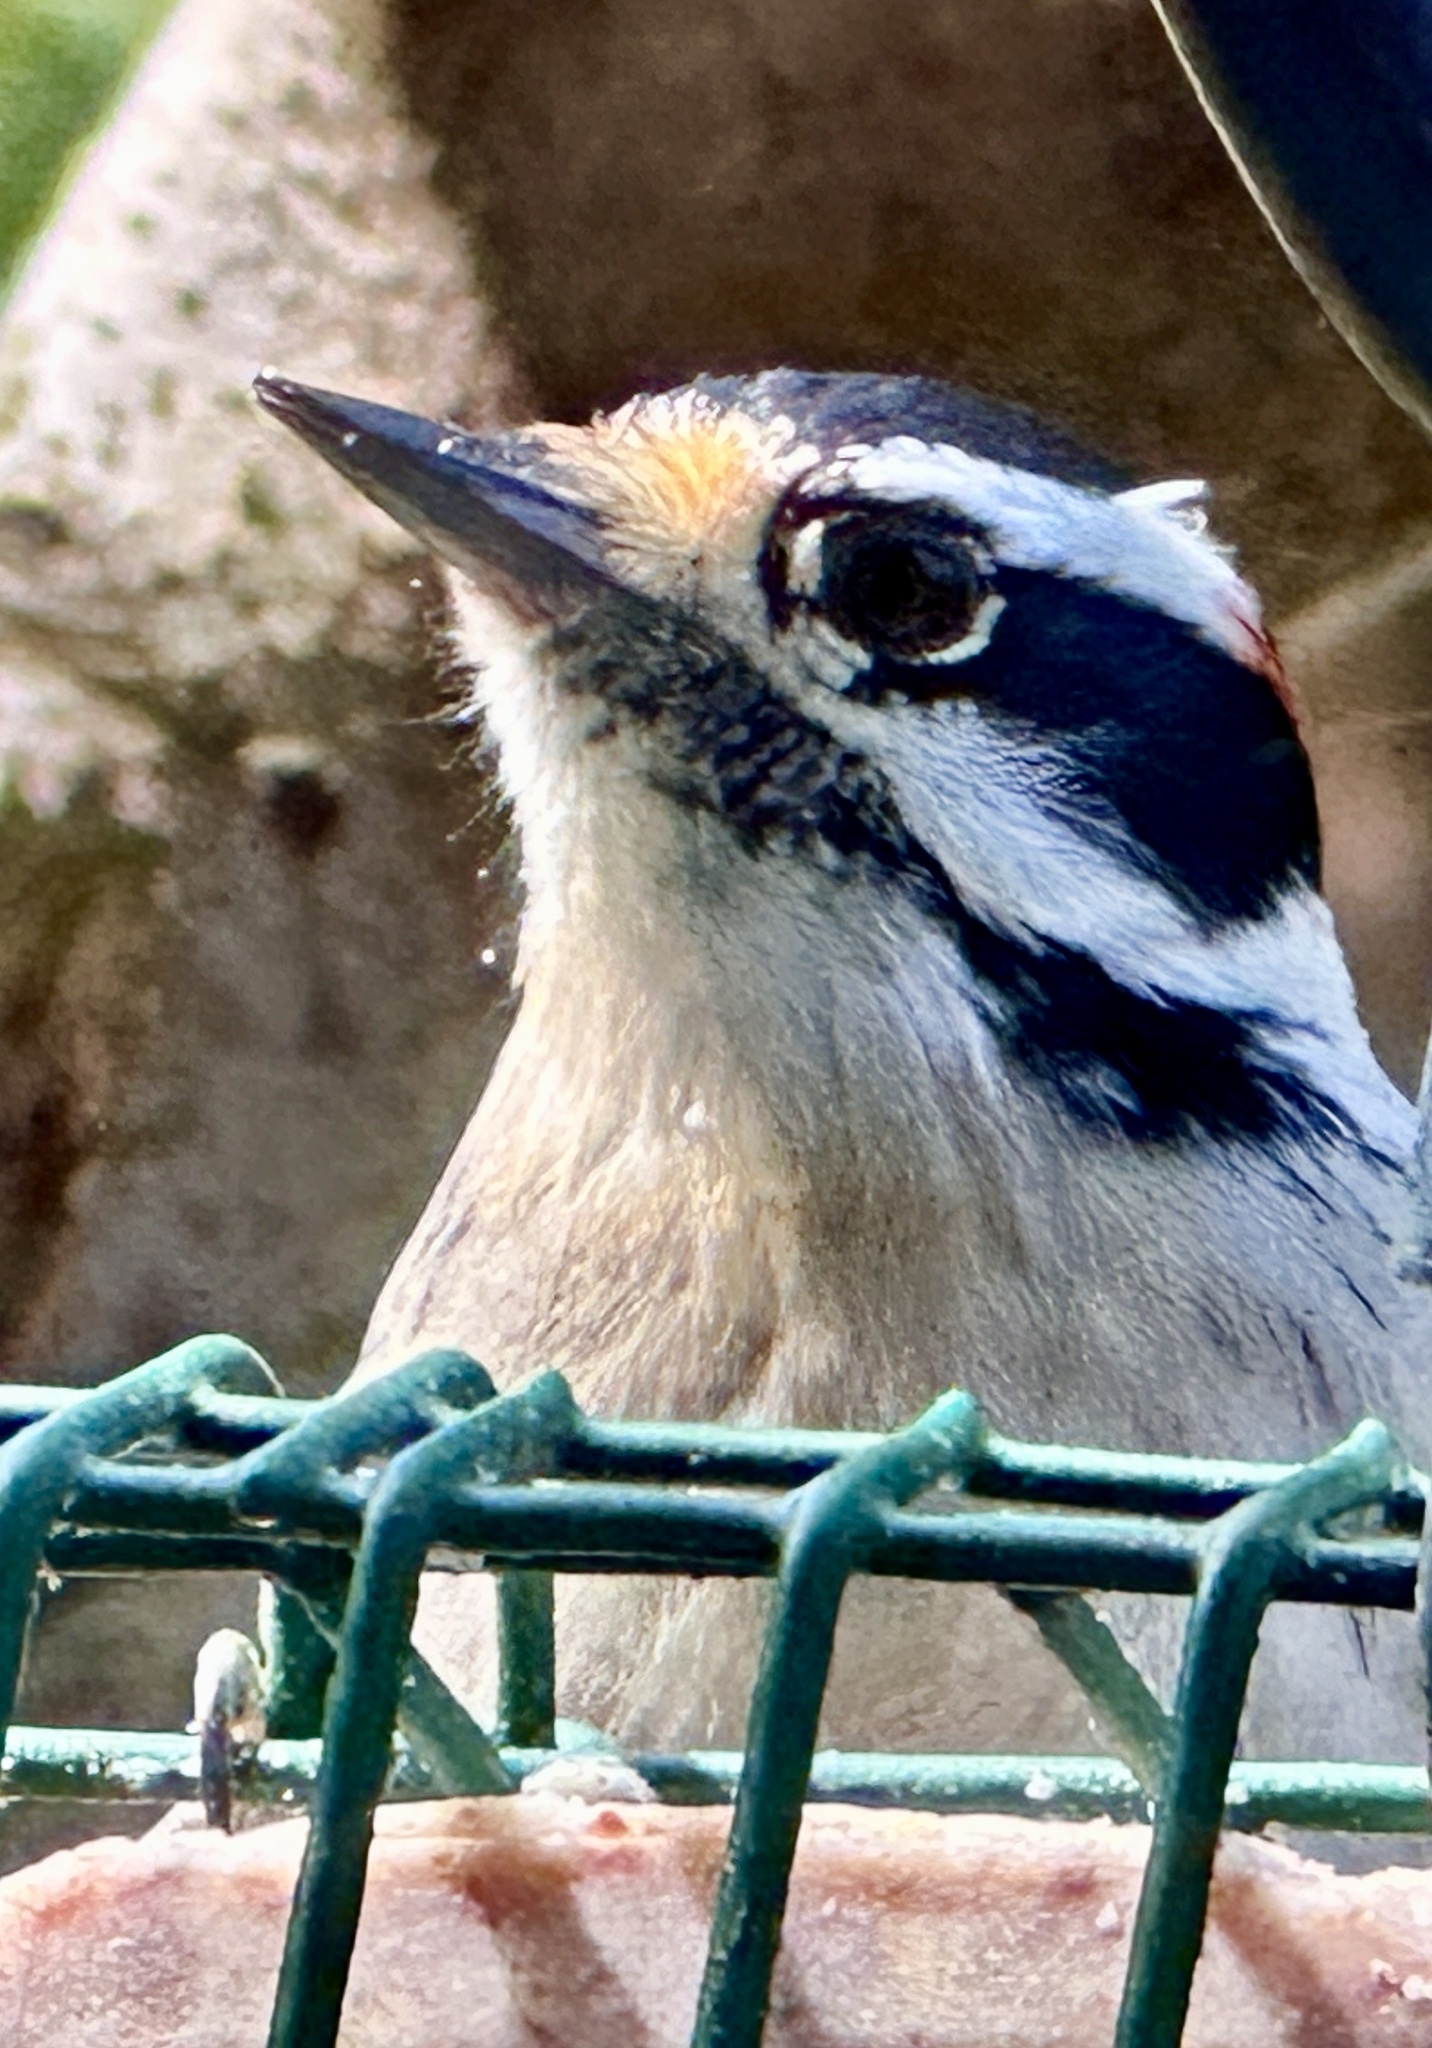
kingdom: Animalia
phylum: Chordata
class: Aves
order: Piciformes
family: Picidae
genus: Dryobates
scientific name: Dryobates pubescens
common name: Downy woodpecker
